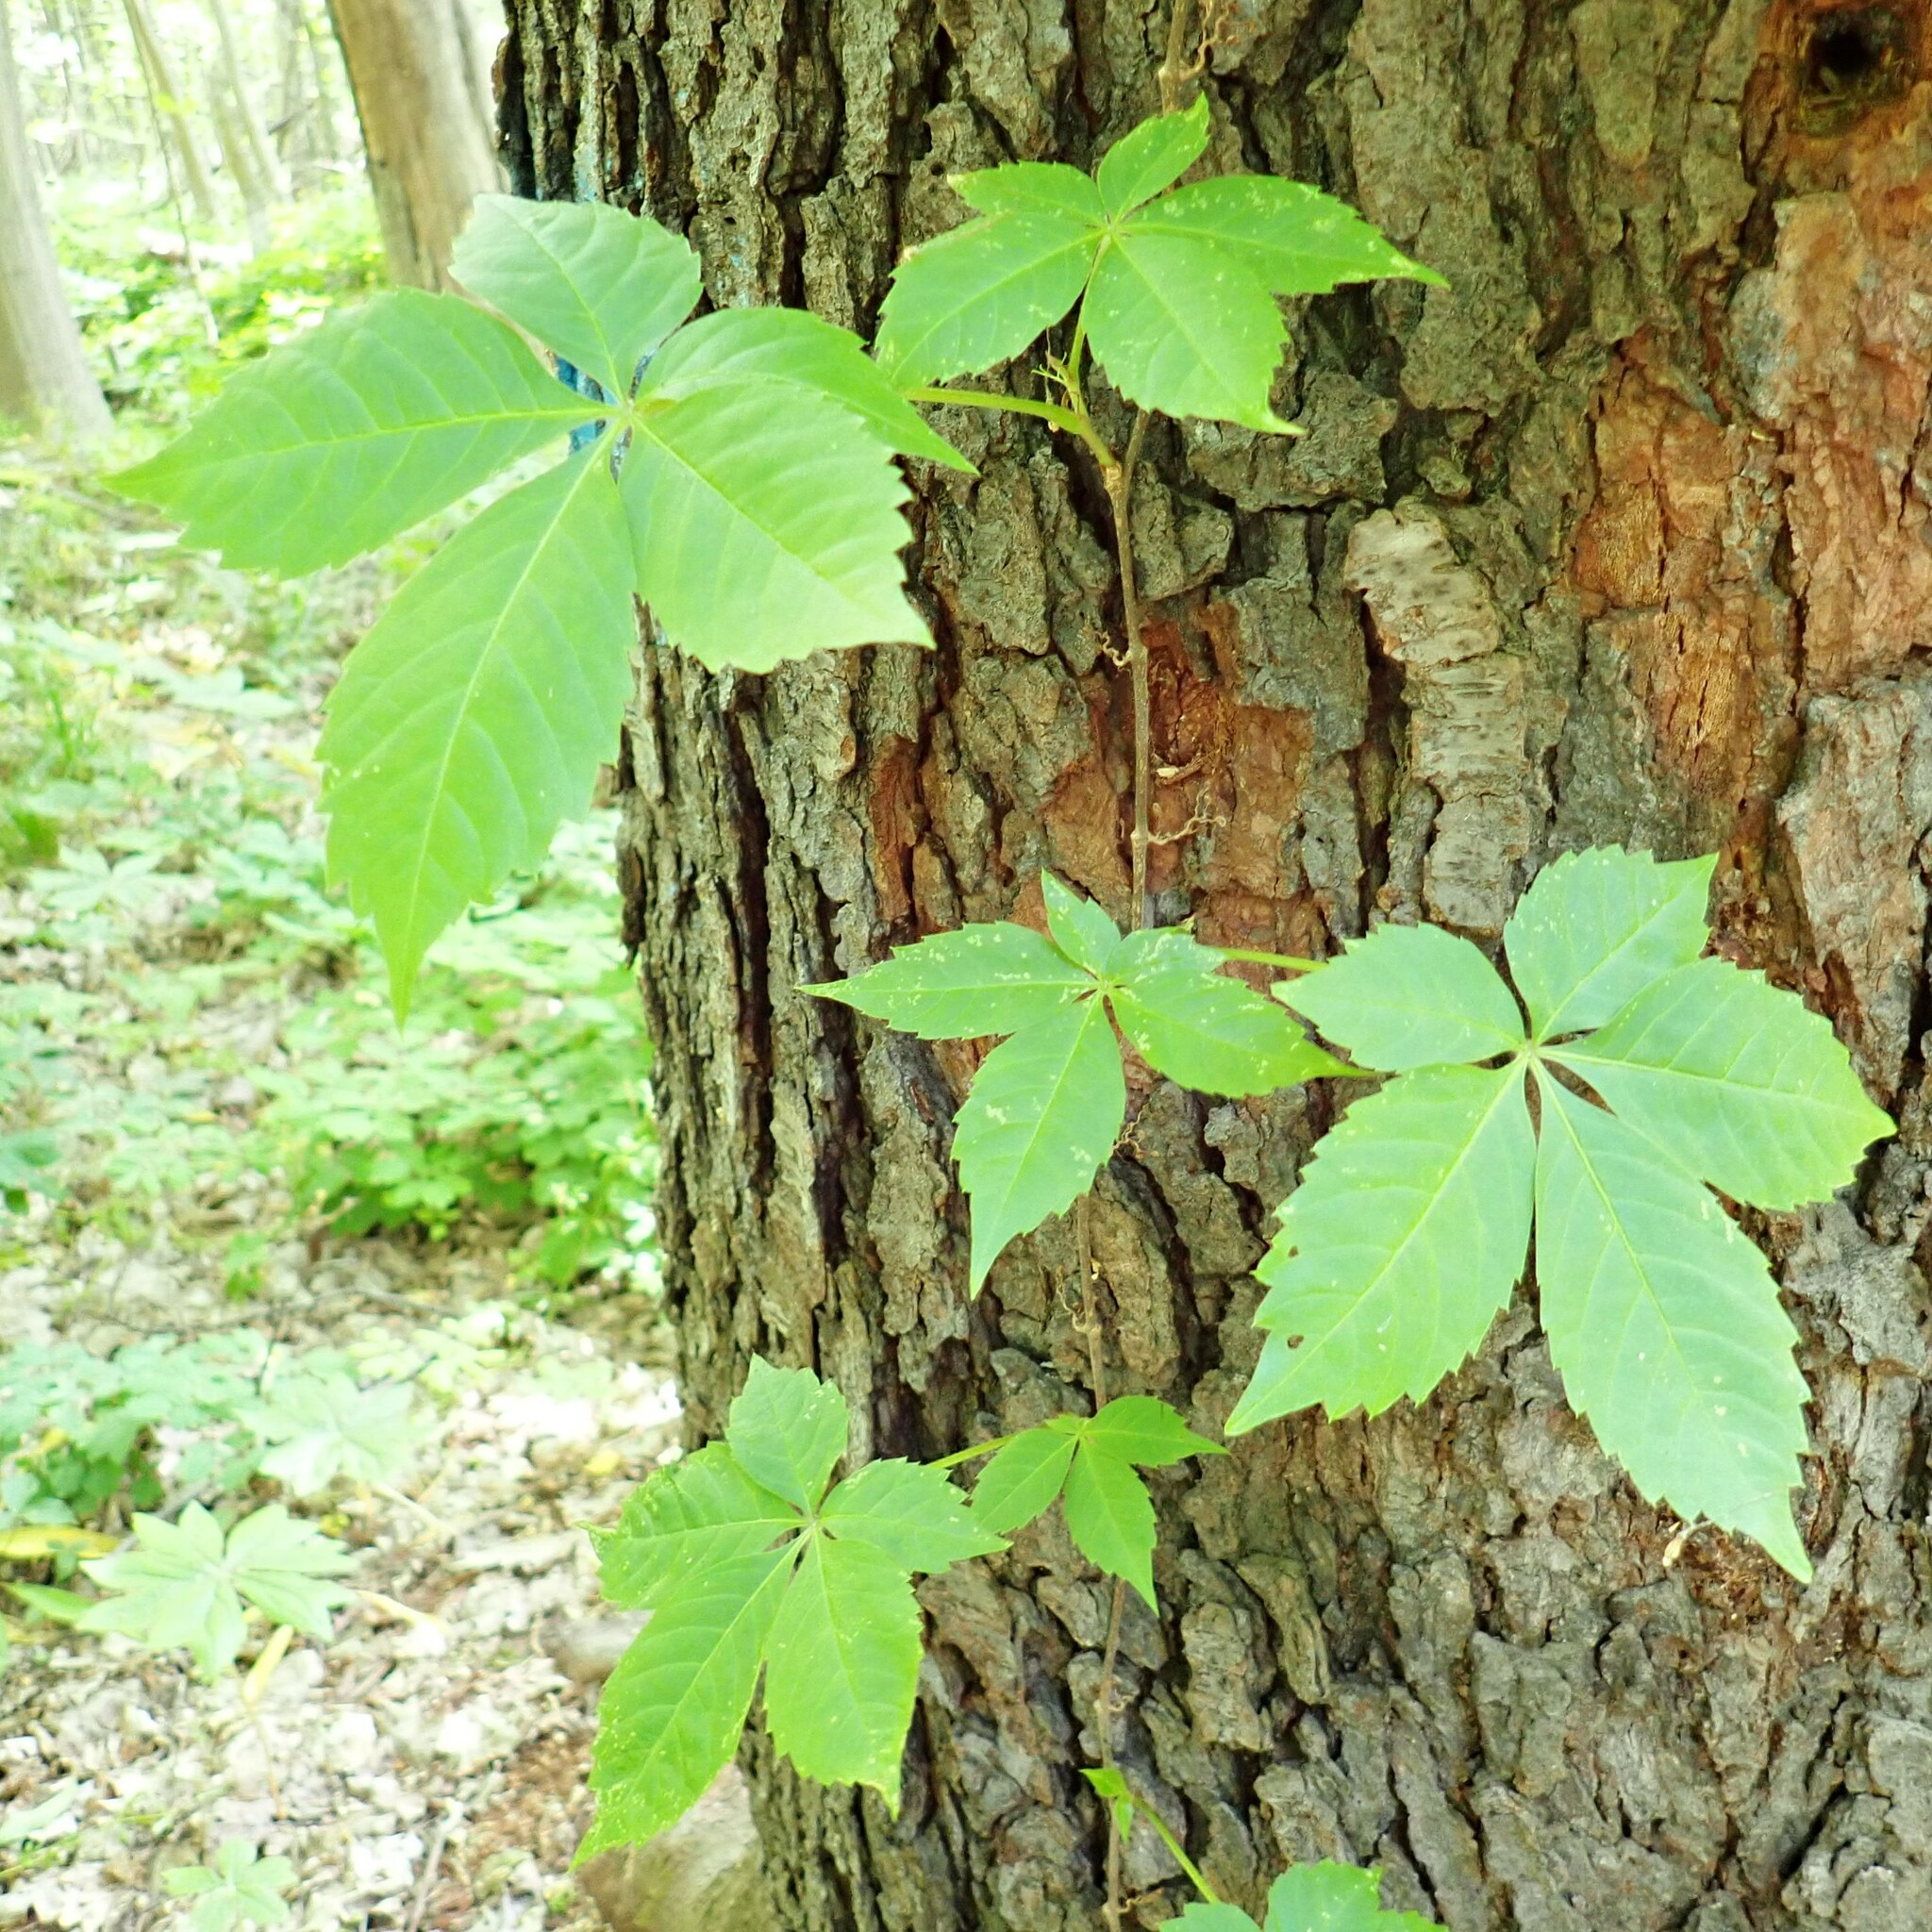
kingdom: Plantae
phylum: Tracheophyta
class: Magnoliopsida
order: Vitales
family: Vitaceae
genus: Parthenocissus
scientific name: Parthenocissus quinquefolia
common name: Virginia-creeper
